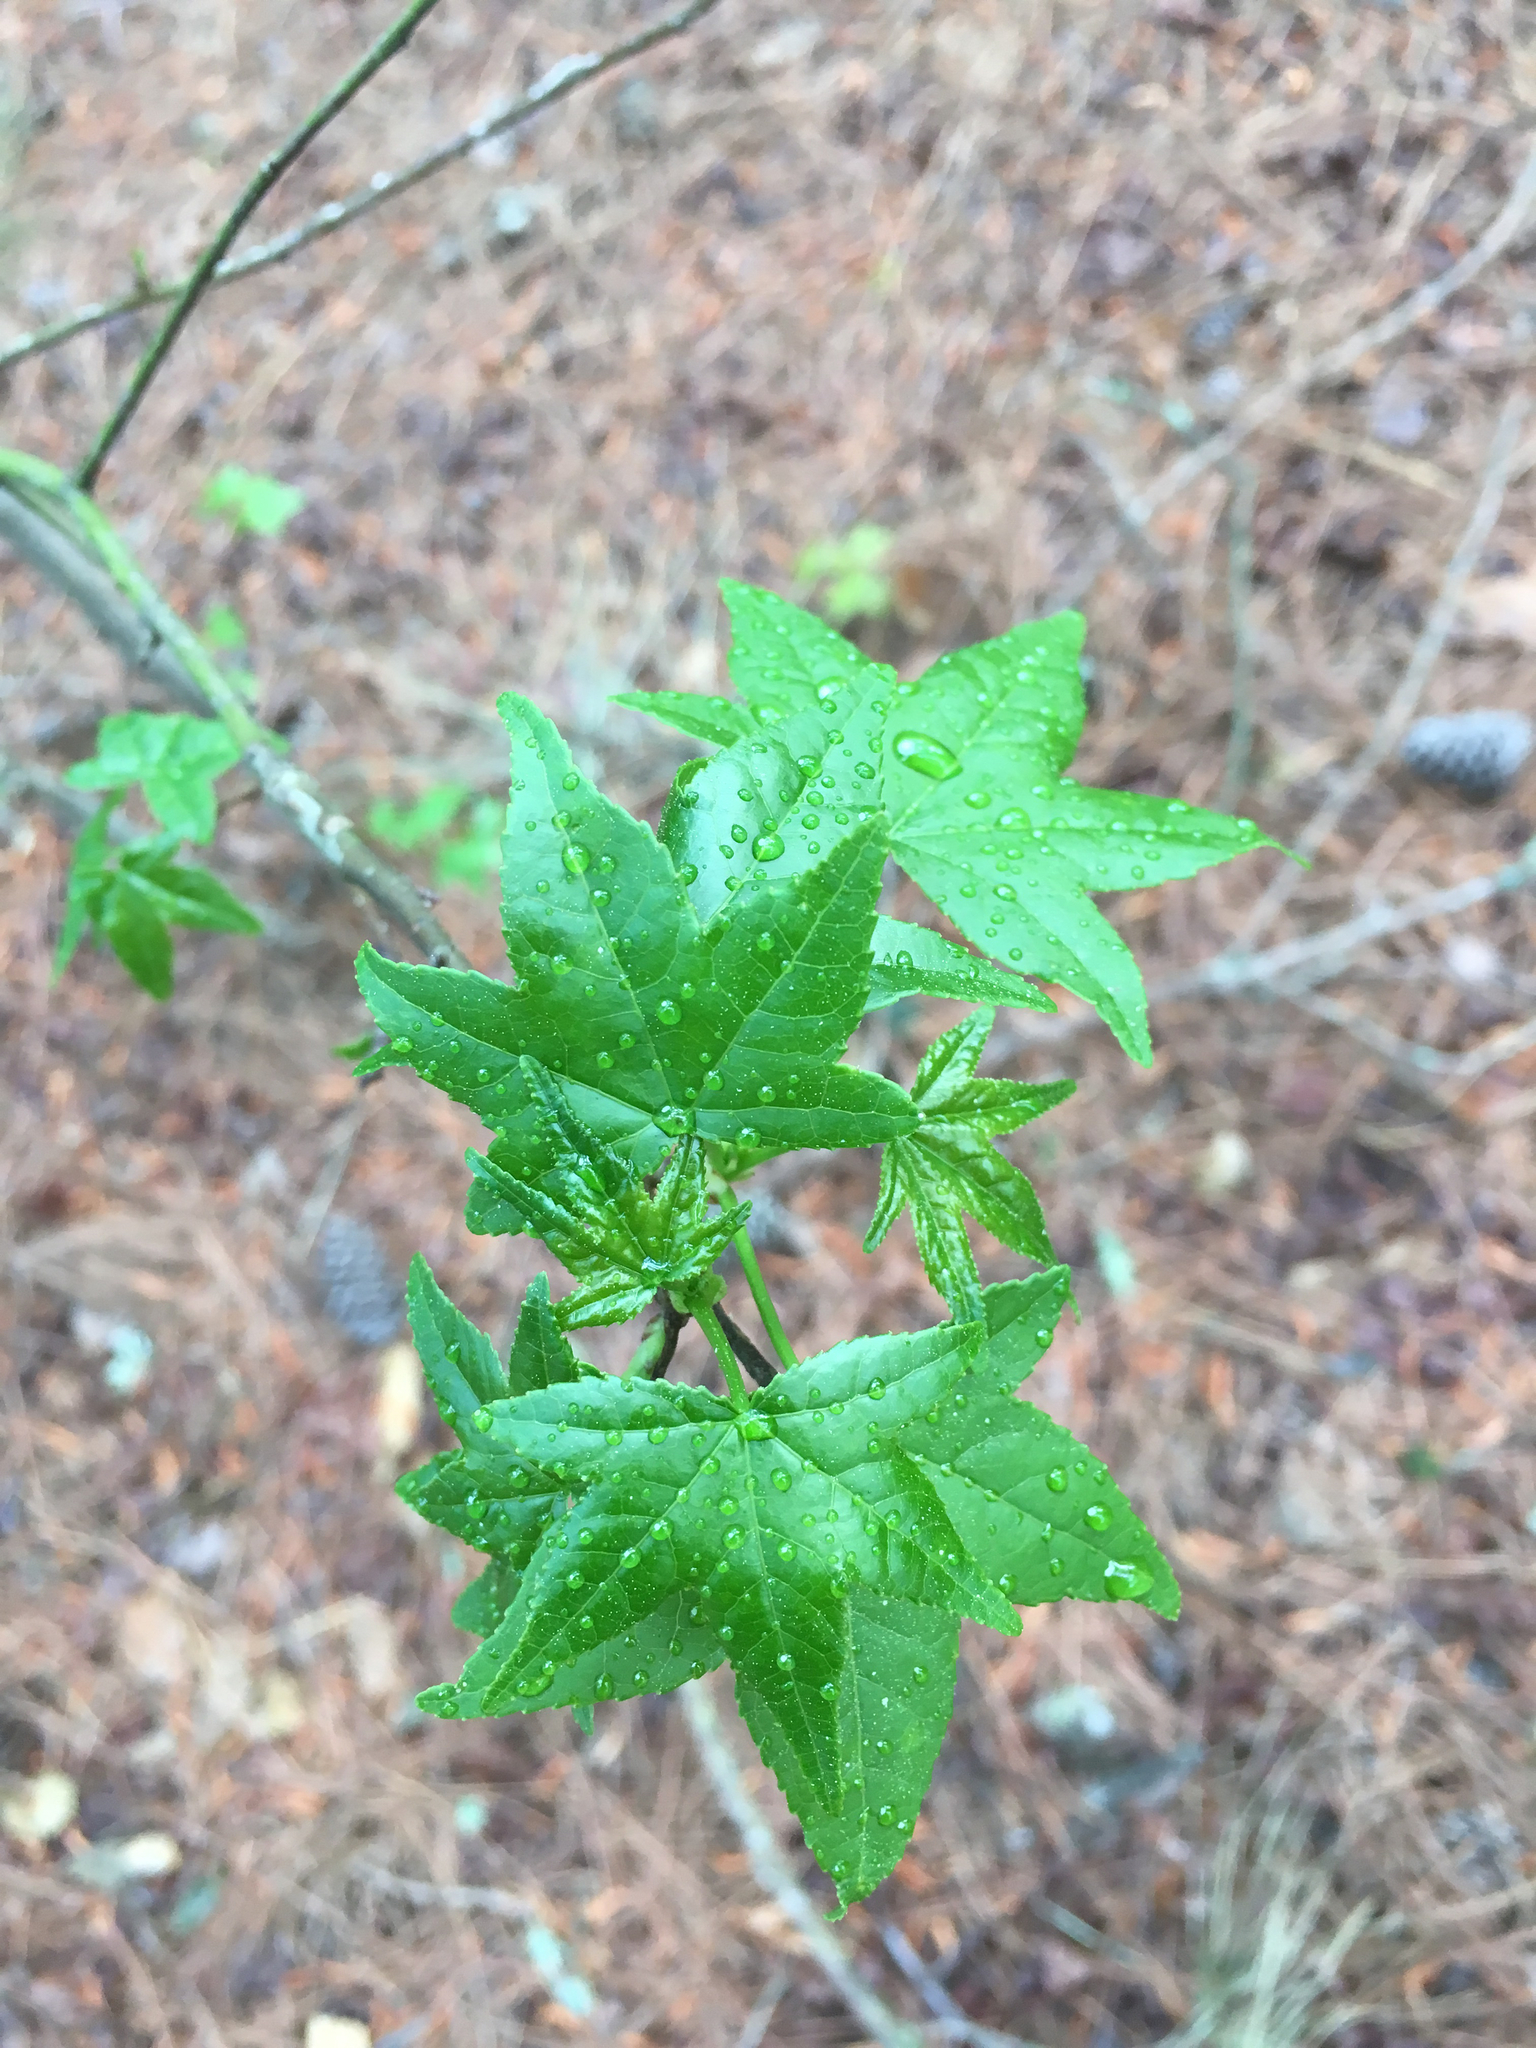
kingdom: Plantae
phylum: Tracheophyta
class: Magnoliopsida
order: Saxifragales
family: Altingiaceae
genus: Liquidambar
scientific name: Liquidambar styraciflua
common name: Sweet gum
